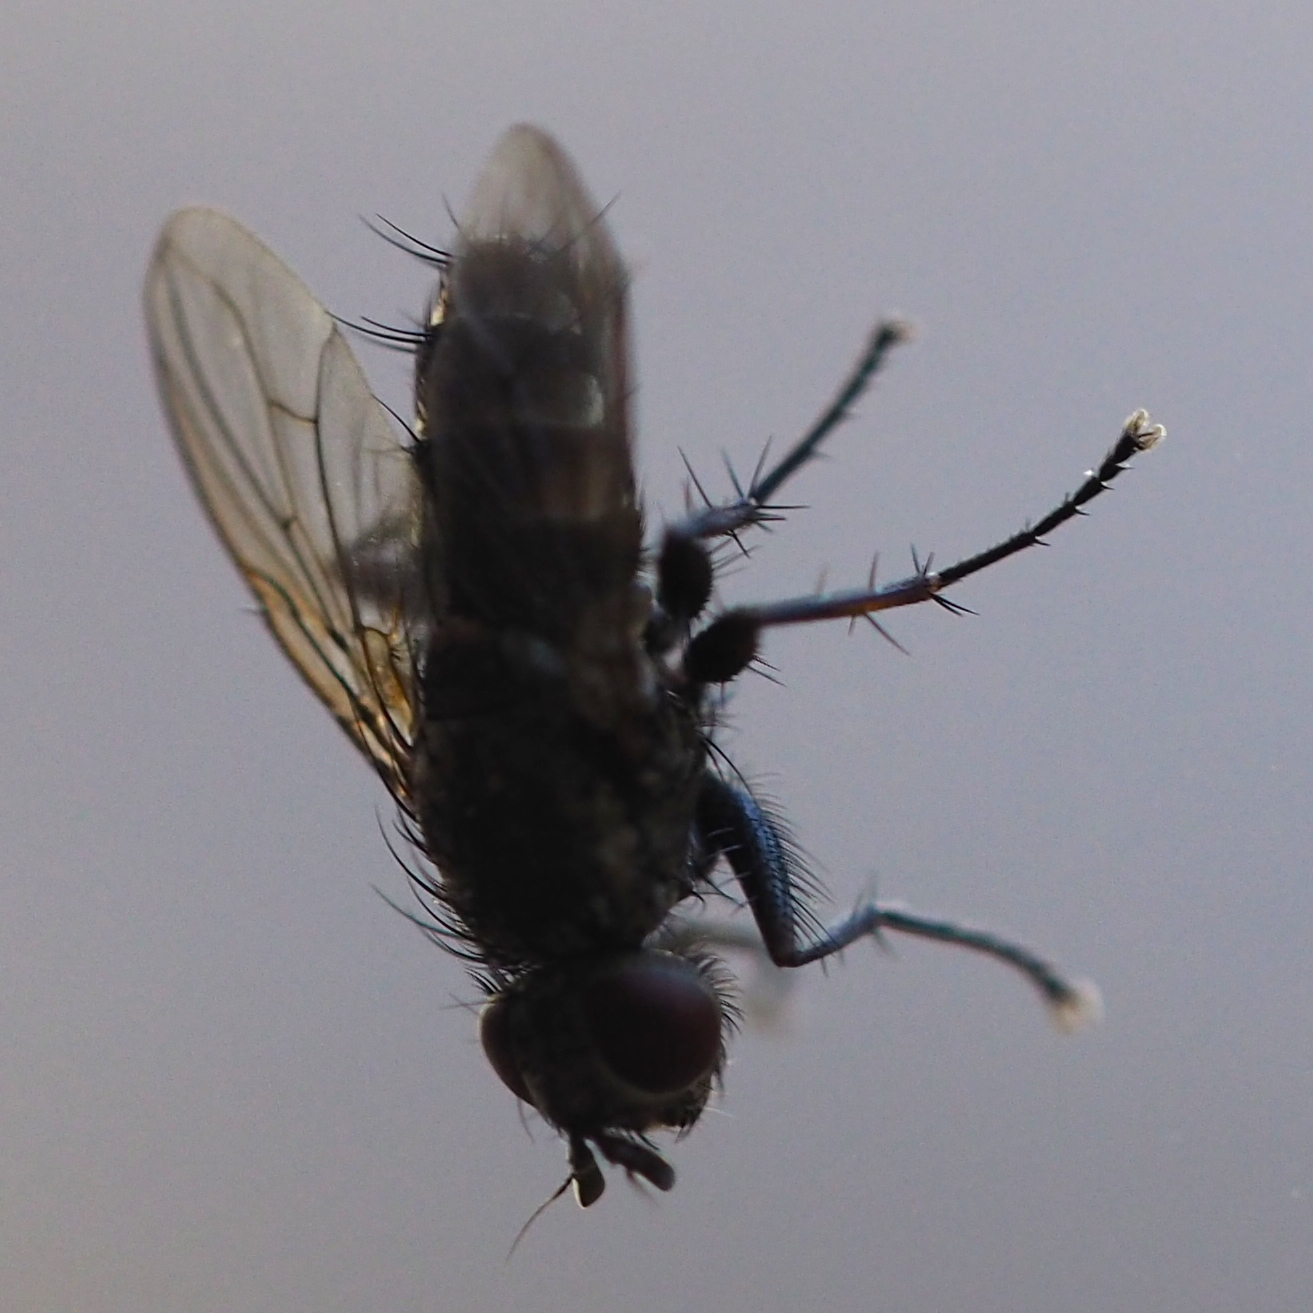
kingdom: Animalia
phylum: Arthropoda
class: Insecta
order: Diptera
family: Calliphoridae
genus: Tricogena
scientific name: Tricogena rubricosa
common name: Red-shinned woodlouse-fly
